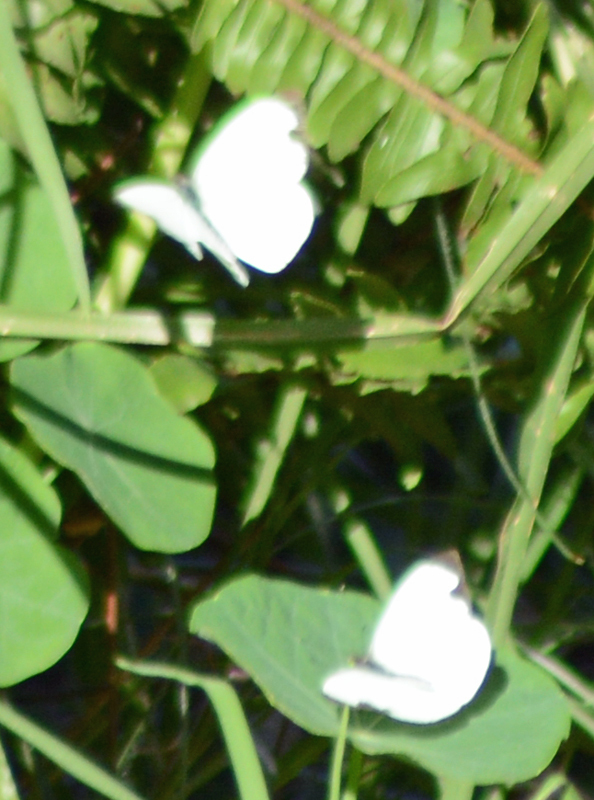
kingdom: Animalia
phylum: Arthropoda
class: Insecta
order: Lepidoptera
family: Pieridae
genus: Leptophobia
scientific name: Leptophobia aripa
